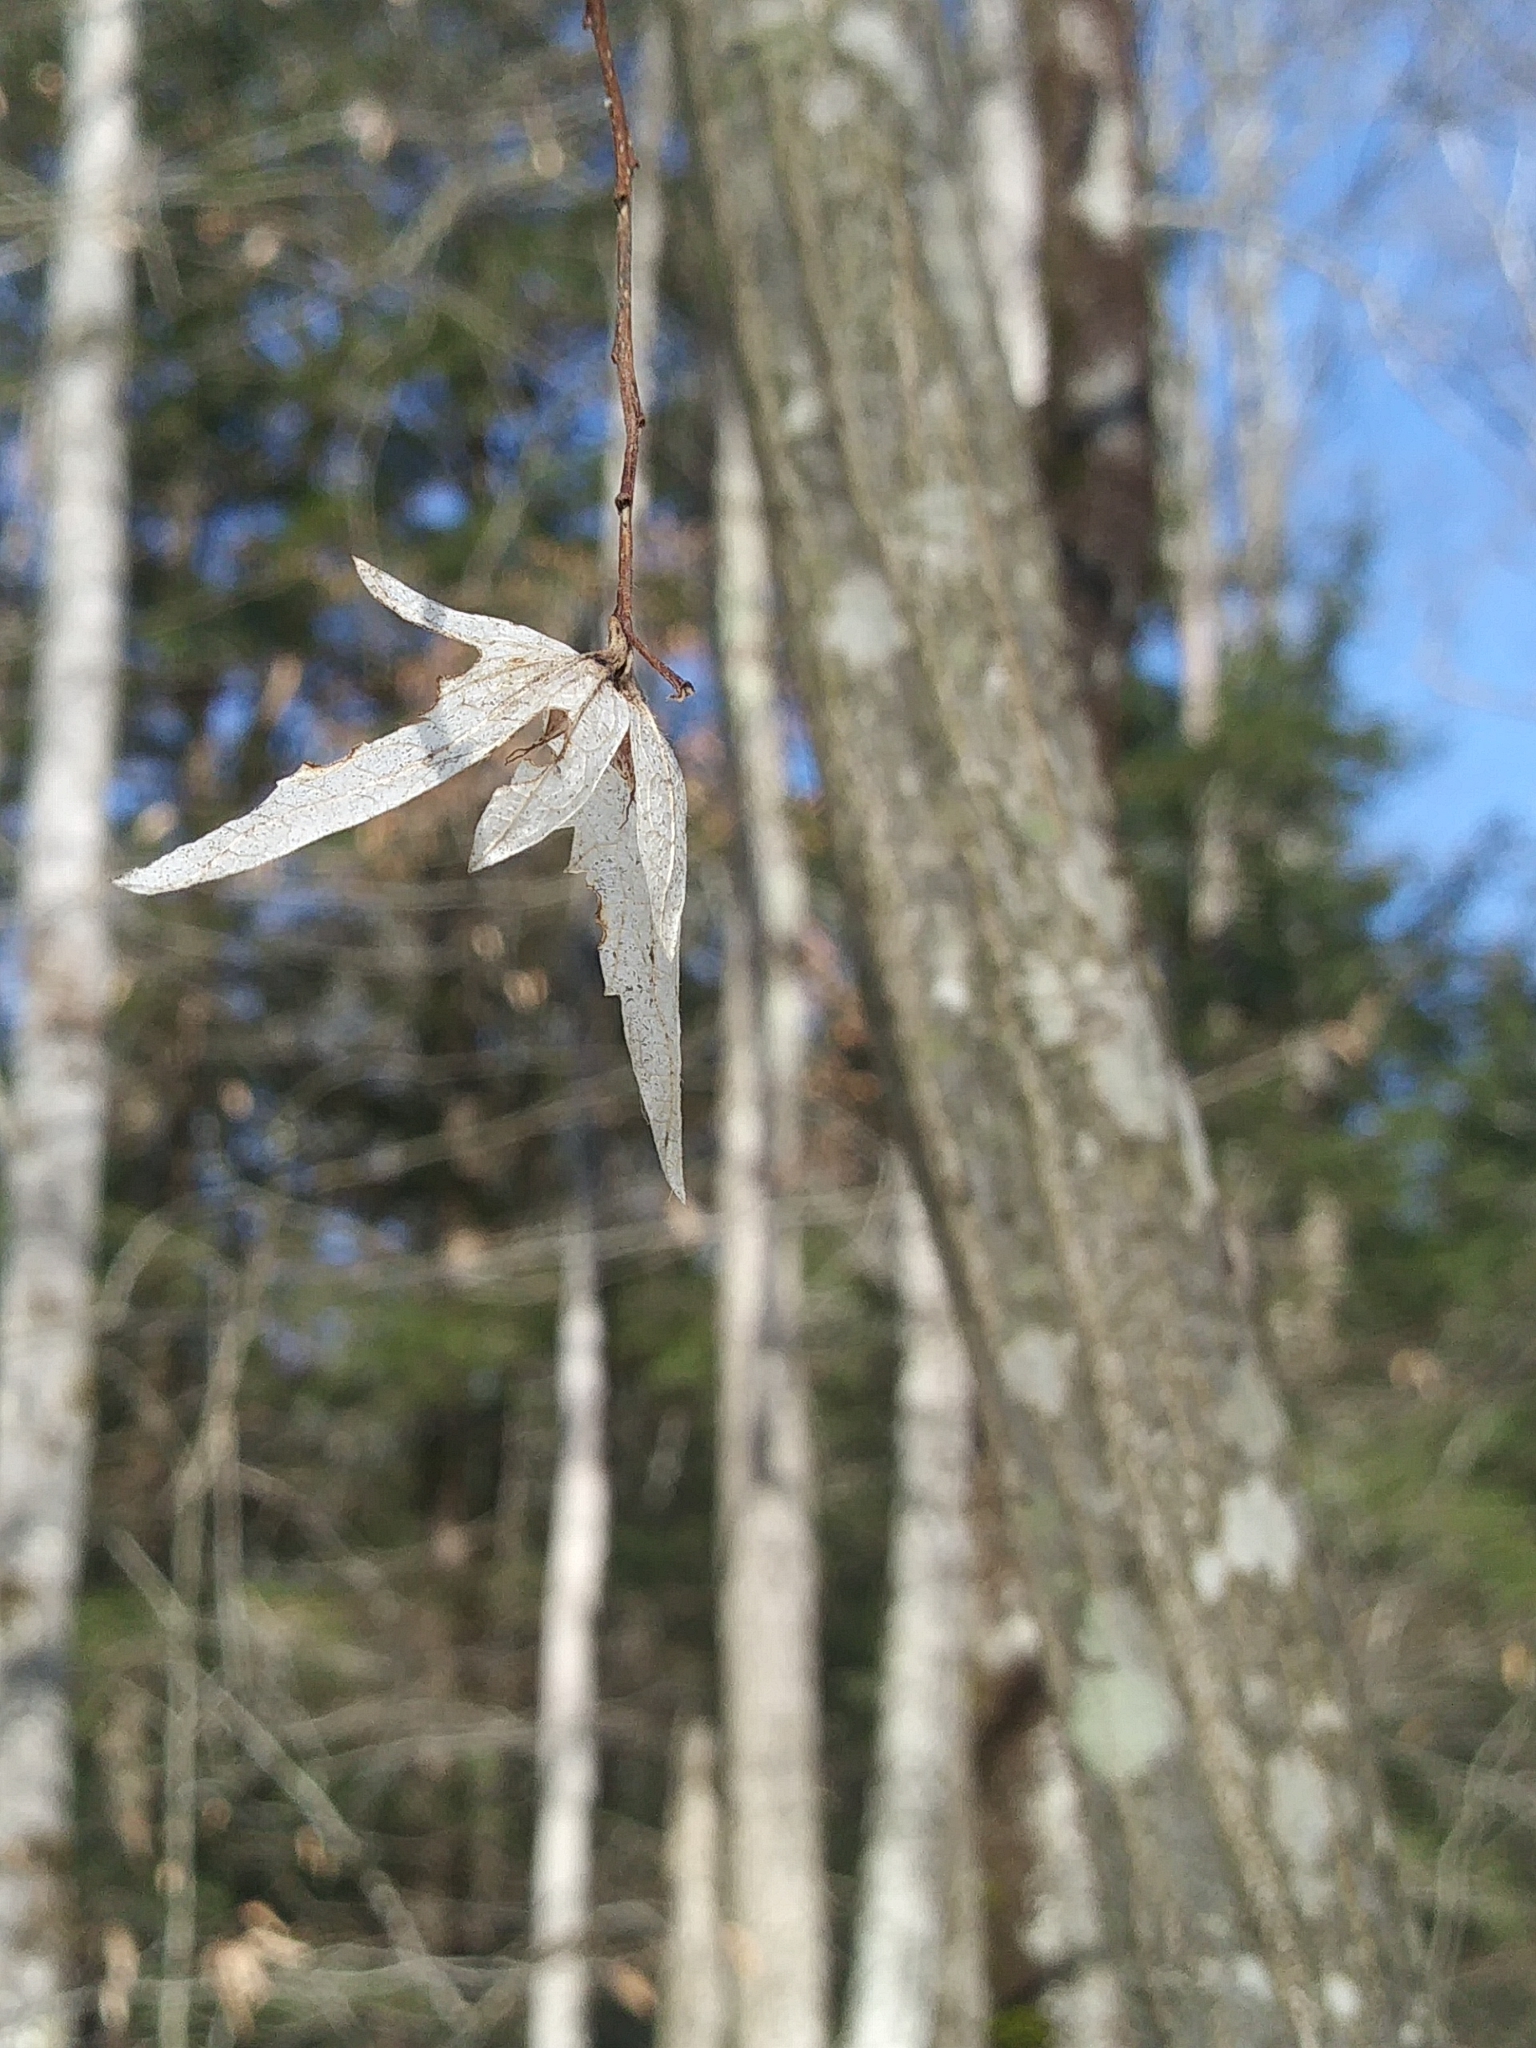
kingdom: Plantae
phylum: Tracheophyta
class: Magnoliopsida
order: Fagales
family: Betulaceae
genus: Carpinus
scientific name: Carpinus caroliniana
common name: American hornbeam
